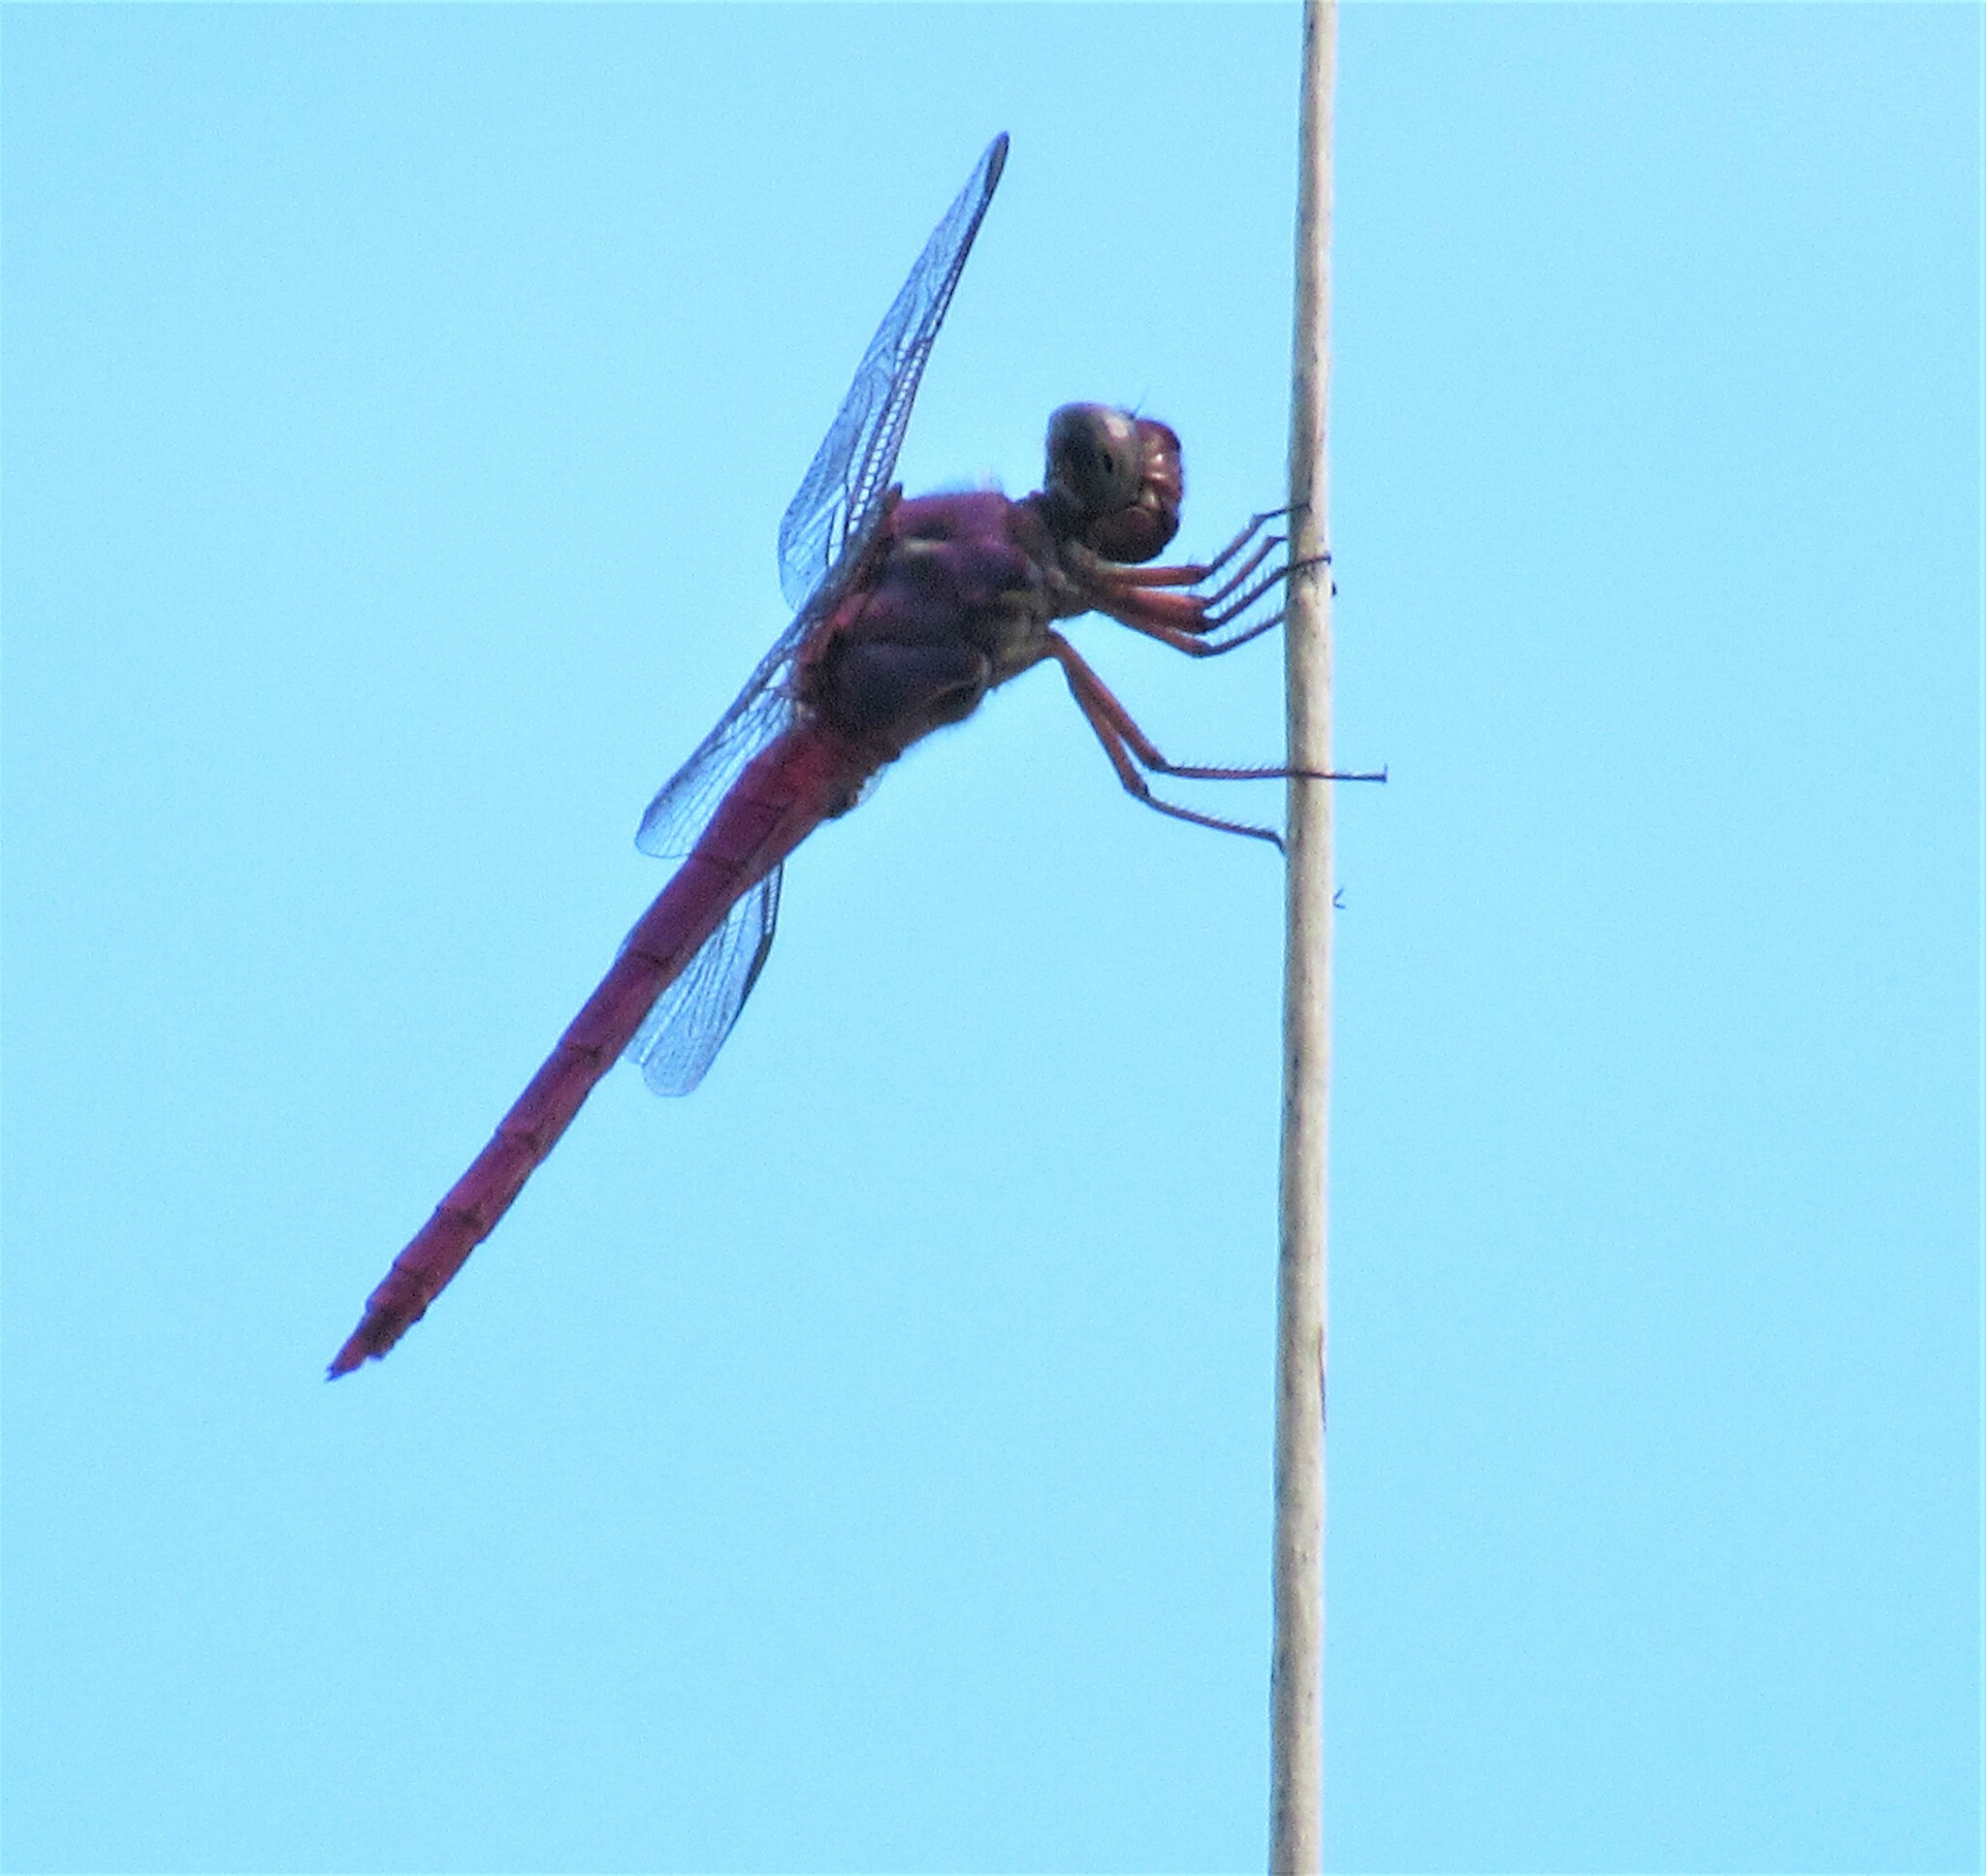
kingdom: Animalia
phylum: Arthropoda
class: Insecta
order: Odonata
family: Libellulidae
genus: Orthemis
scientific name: Orthemis ferruginea
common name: Roseate skimmer
